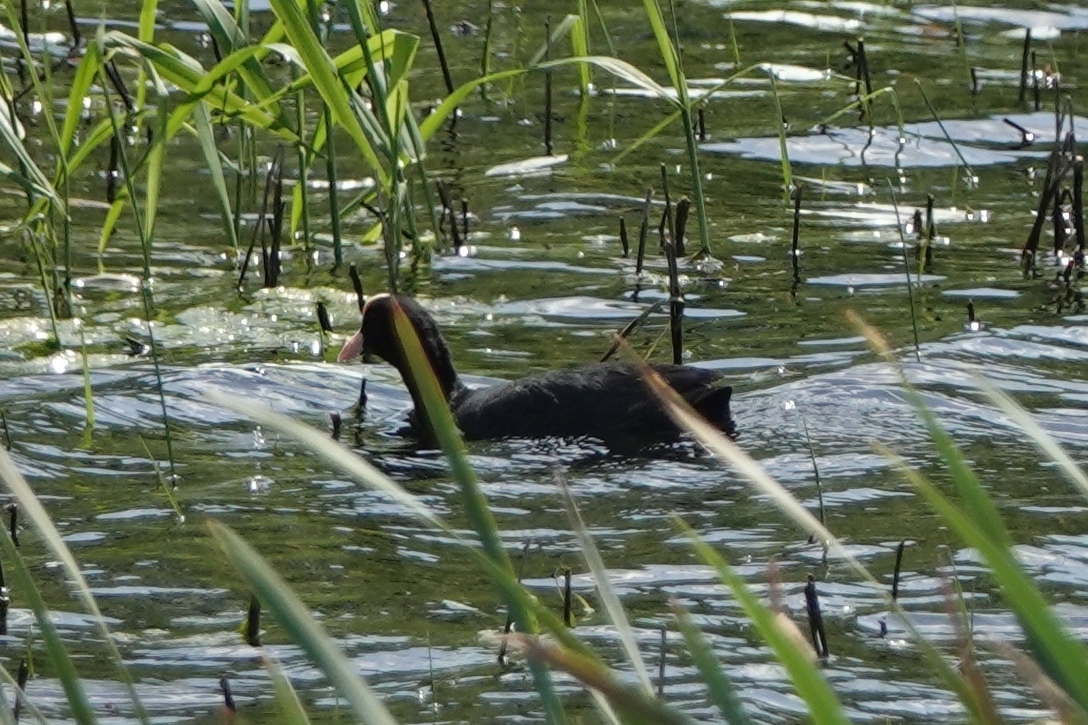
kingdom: Animalia
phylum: Chordata
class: Aves
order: Gruiformes
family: Rallidae
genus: Fulica
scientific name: Fulica atra
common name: Eurasian coot
